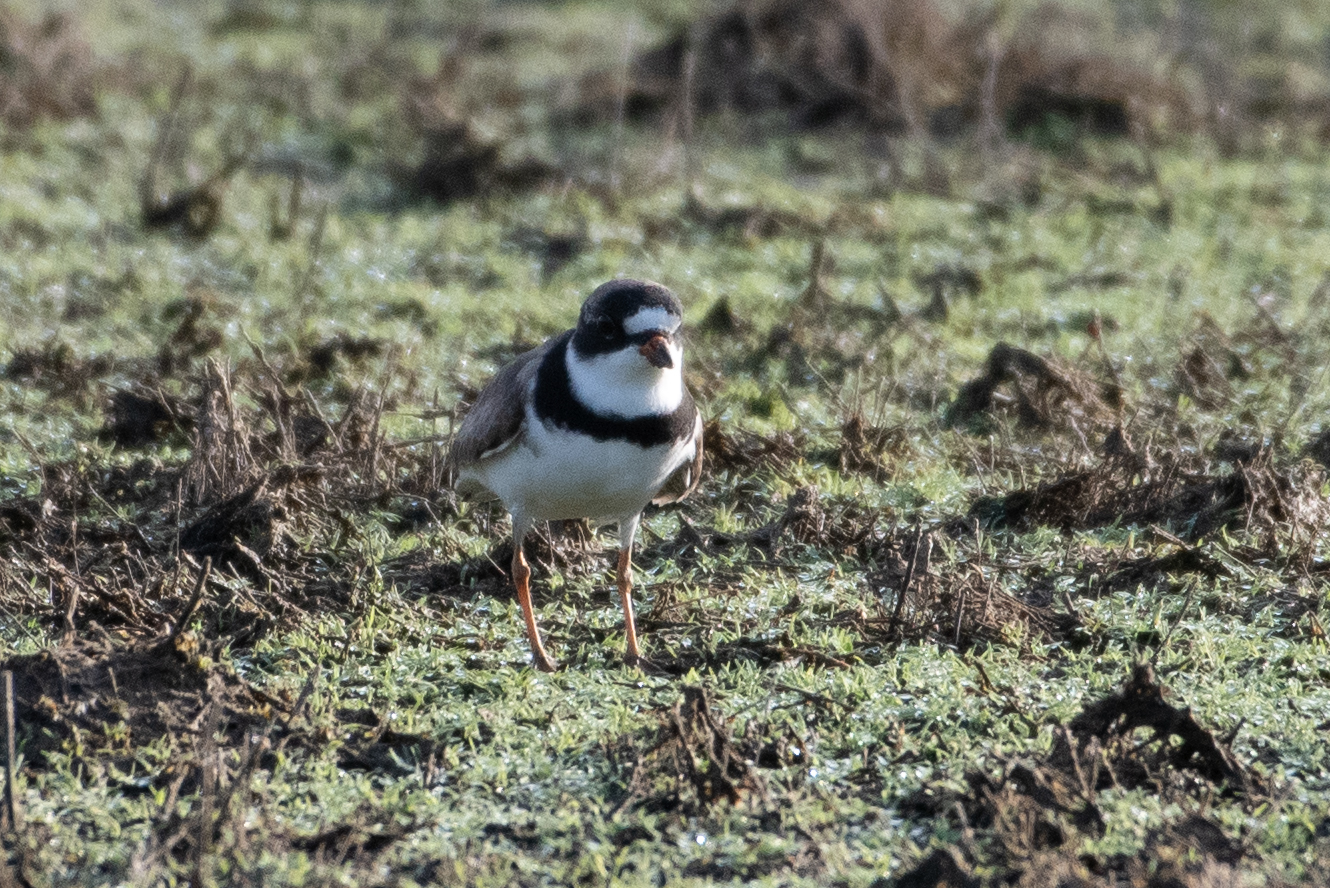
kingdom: Animalia
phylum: Chordata
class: Aves
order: Charadriiformes
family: Charadriidae
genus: Charadrius
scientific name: Charadrius semipalmatus
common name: Semipalmated plover
